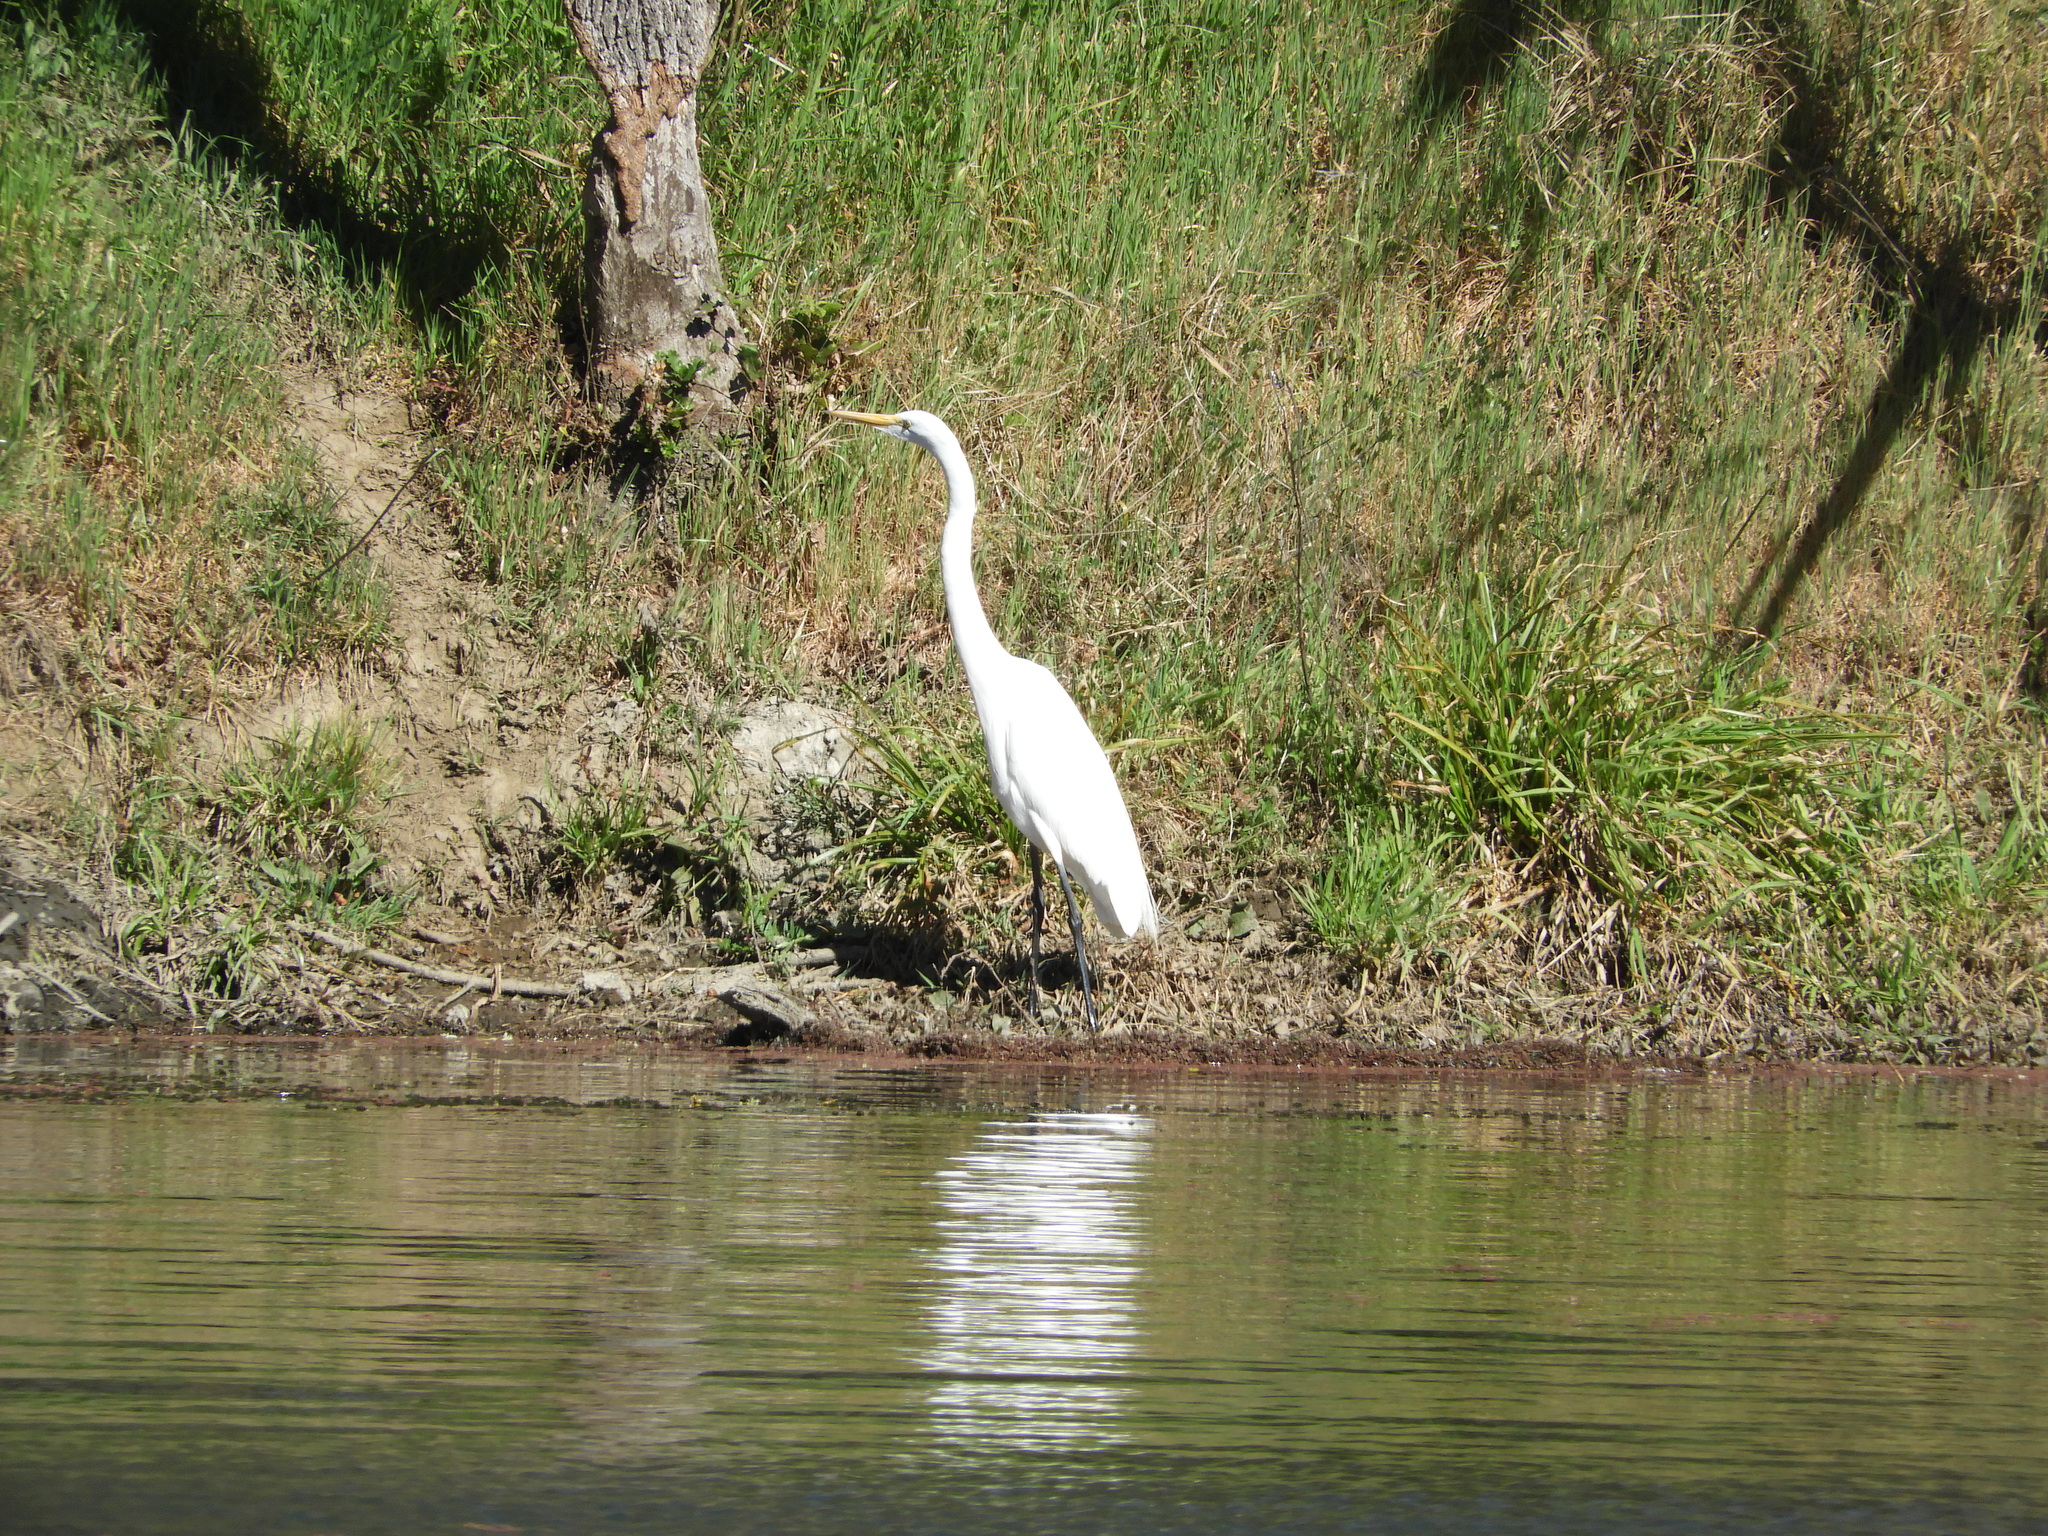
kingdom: Animalia
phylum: Chordata
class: Aves
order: Pelecaniformes
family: Ardeidae
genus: Ardea
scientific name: Ardea alba
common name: Great egret
